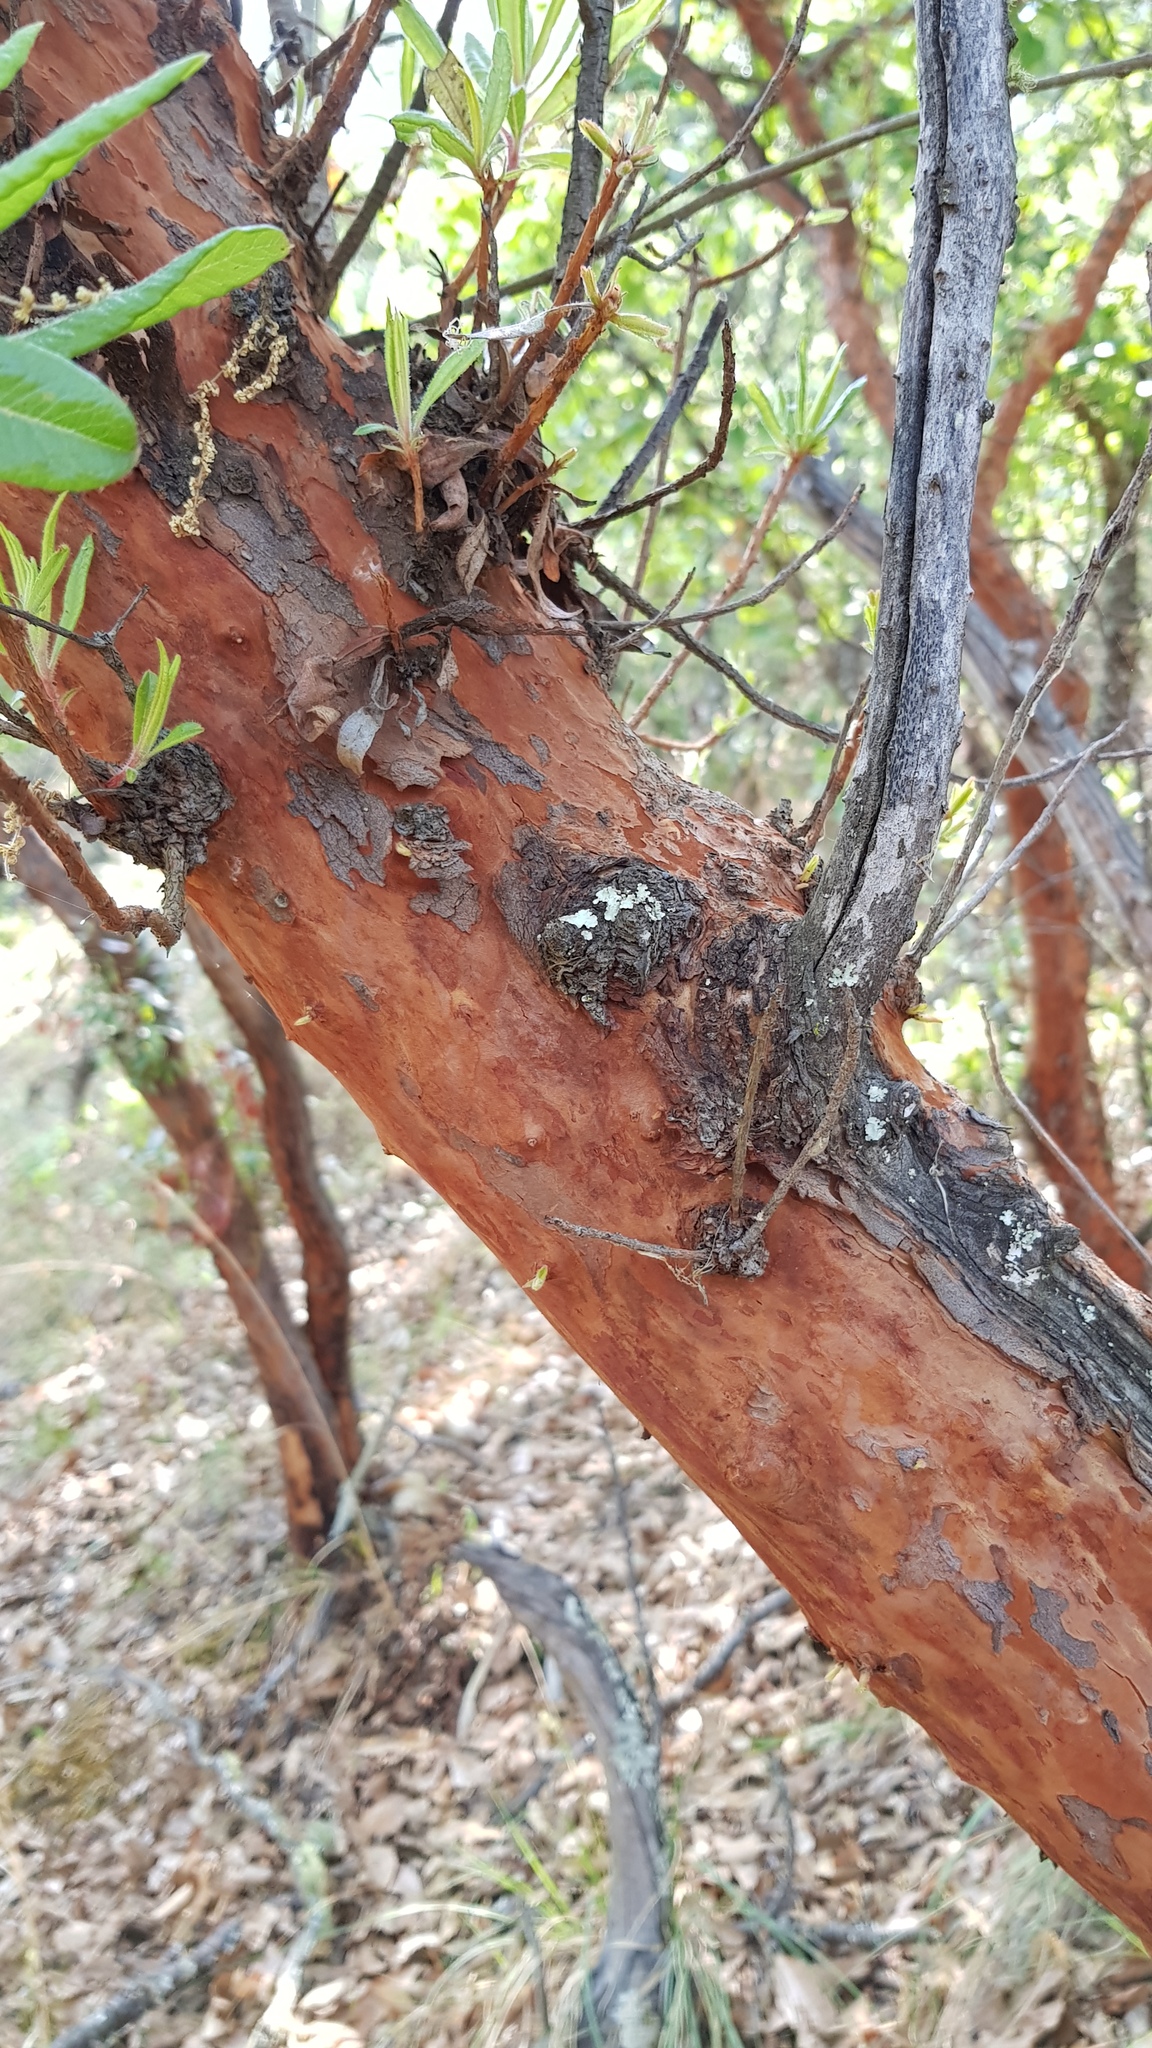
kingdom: Plantae
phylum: Tracheophyta
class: Magnoliopsida
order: Ericales
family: Ericaceae
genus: Comarostaphylis
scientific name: Comarostaphylis glaucescens
